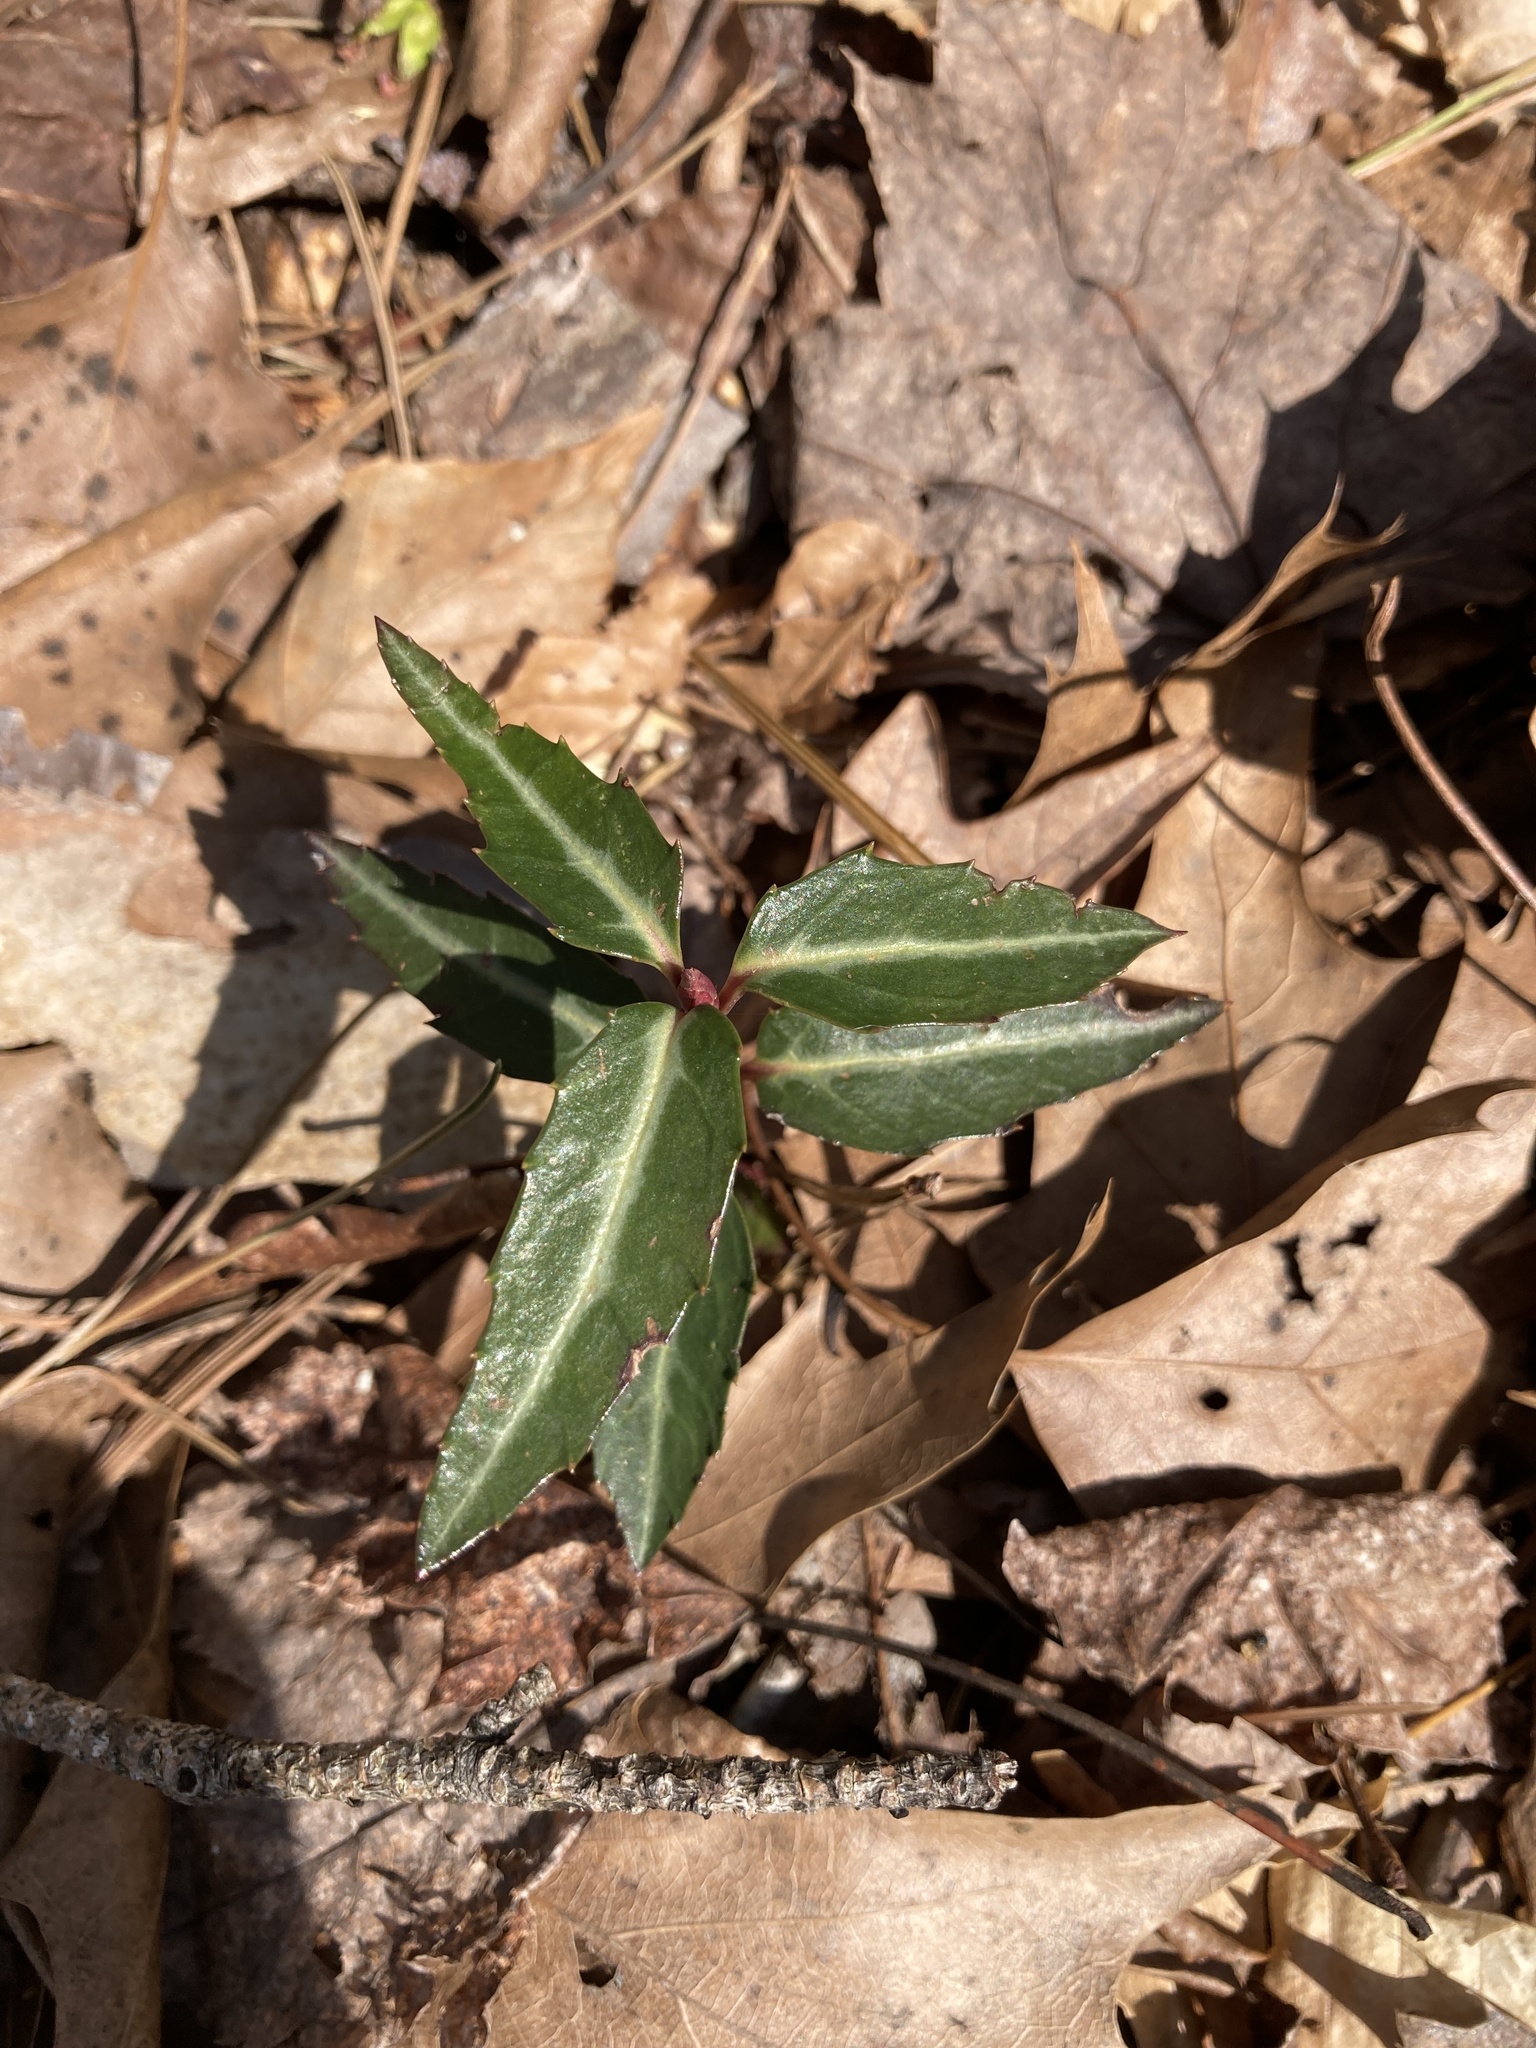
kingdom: Plantae
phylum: Tracheophyta
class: Magnoliopsida
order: Ericales
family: Ericaceae
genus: Chimaphila
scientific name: Chimaphila maculata
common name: Spotted pipsissewa
